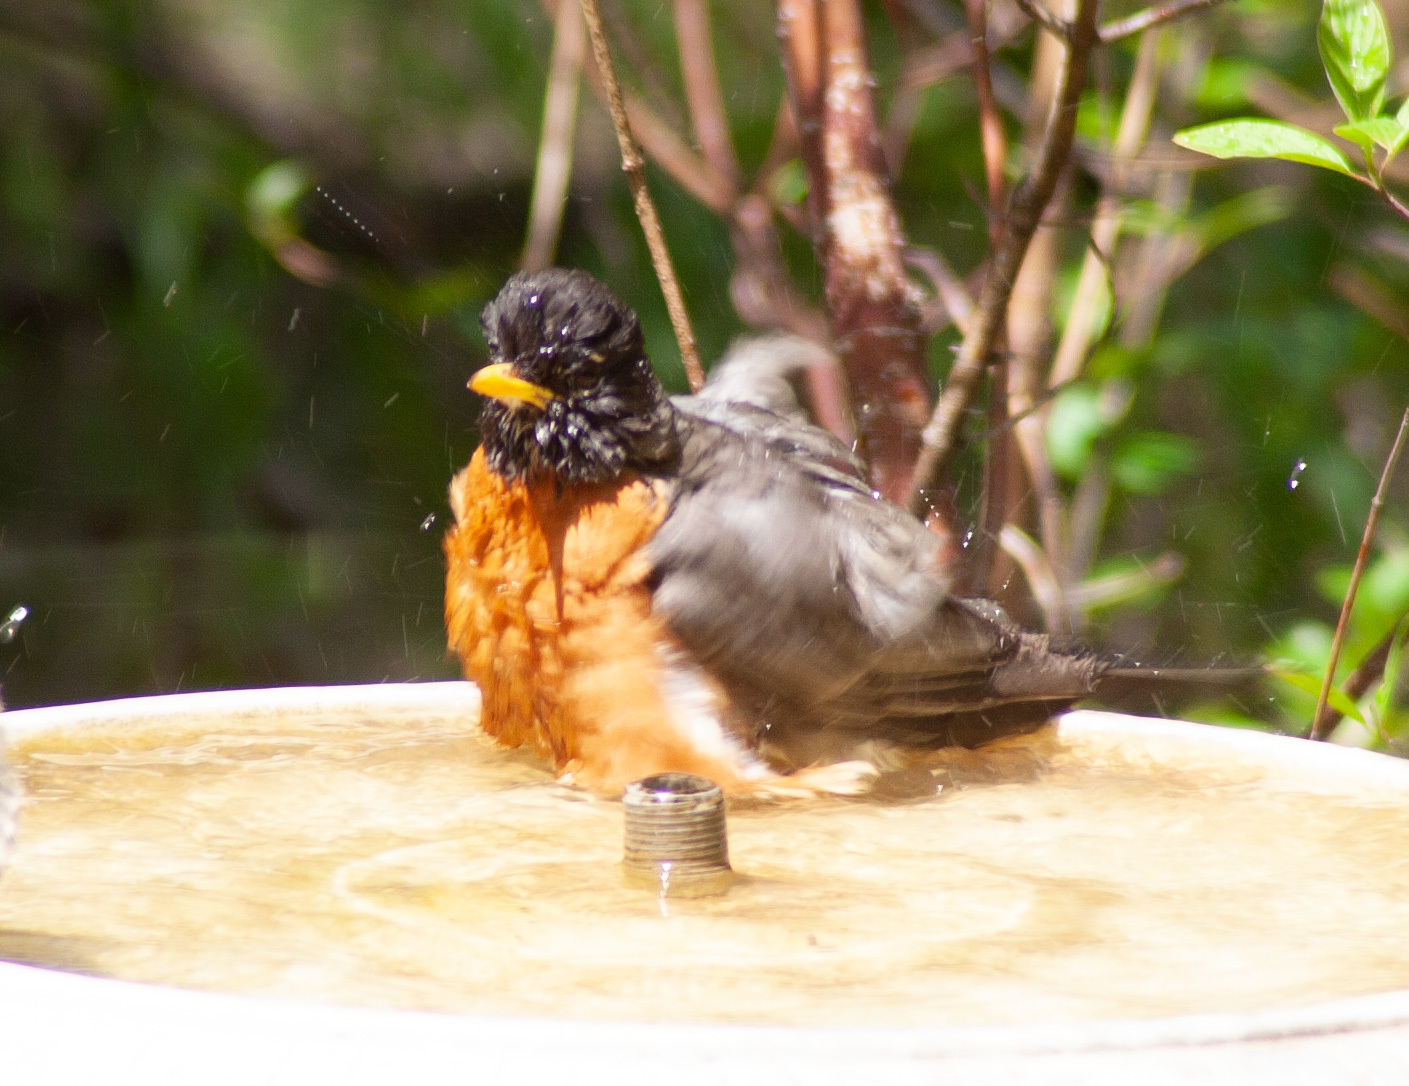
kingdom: Animalia
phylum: Chordata
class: Aves
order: Passeriformes
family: Turdidae
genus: Turdus
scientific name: Turdus migratorius
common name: American robin
